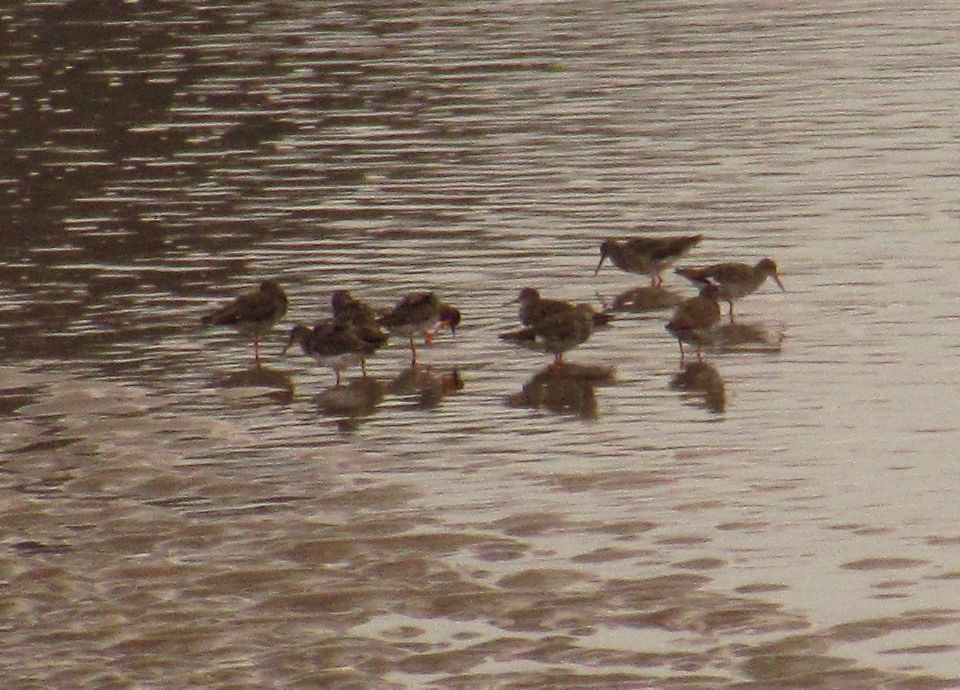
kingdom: Animalia
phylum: Chordata
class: Aves
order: Charadriiformes
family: Scolopacidae
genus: Tringa
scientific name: Tringa totanus
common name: Common redshank
